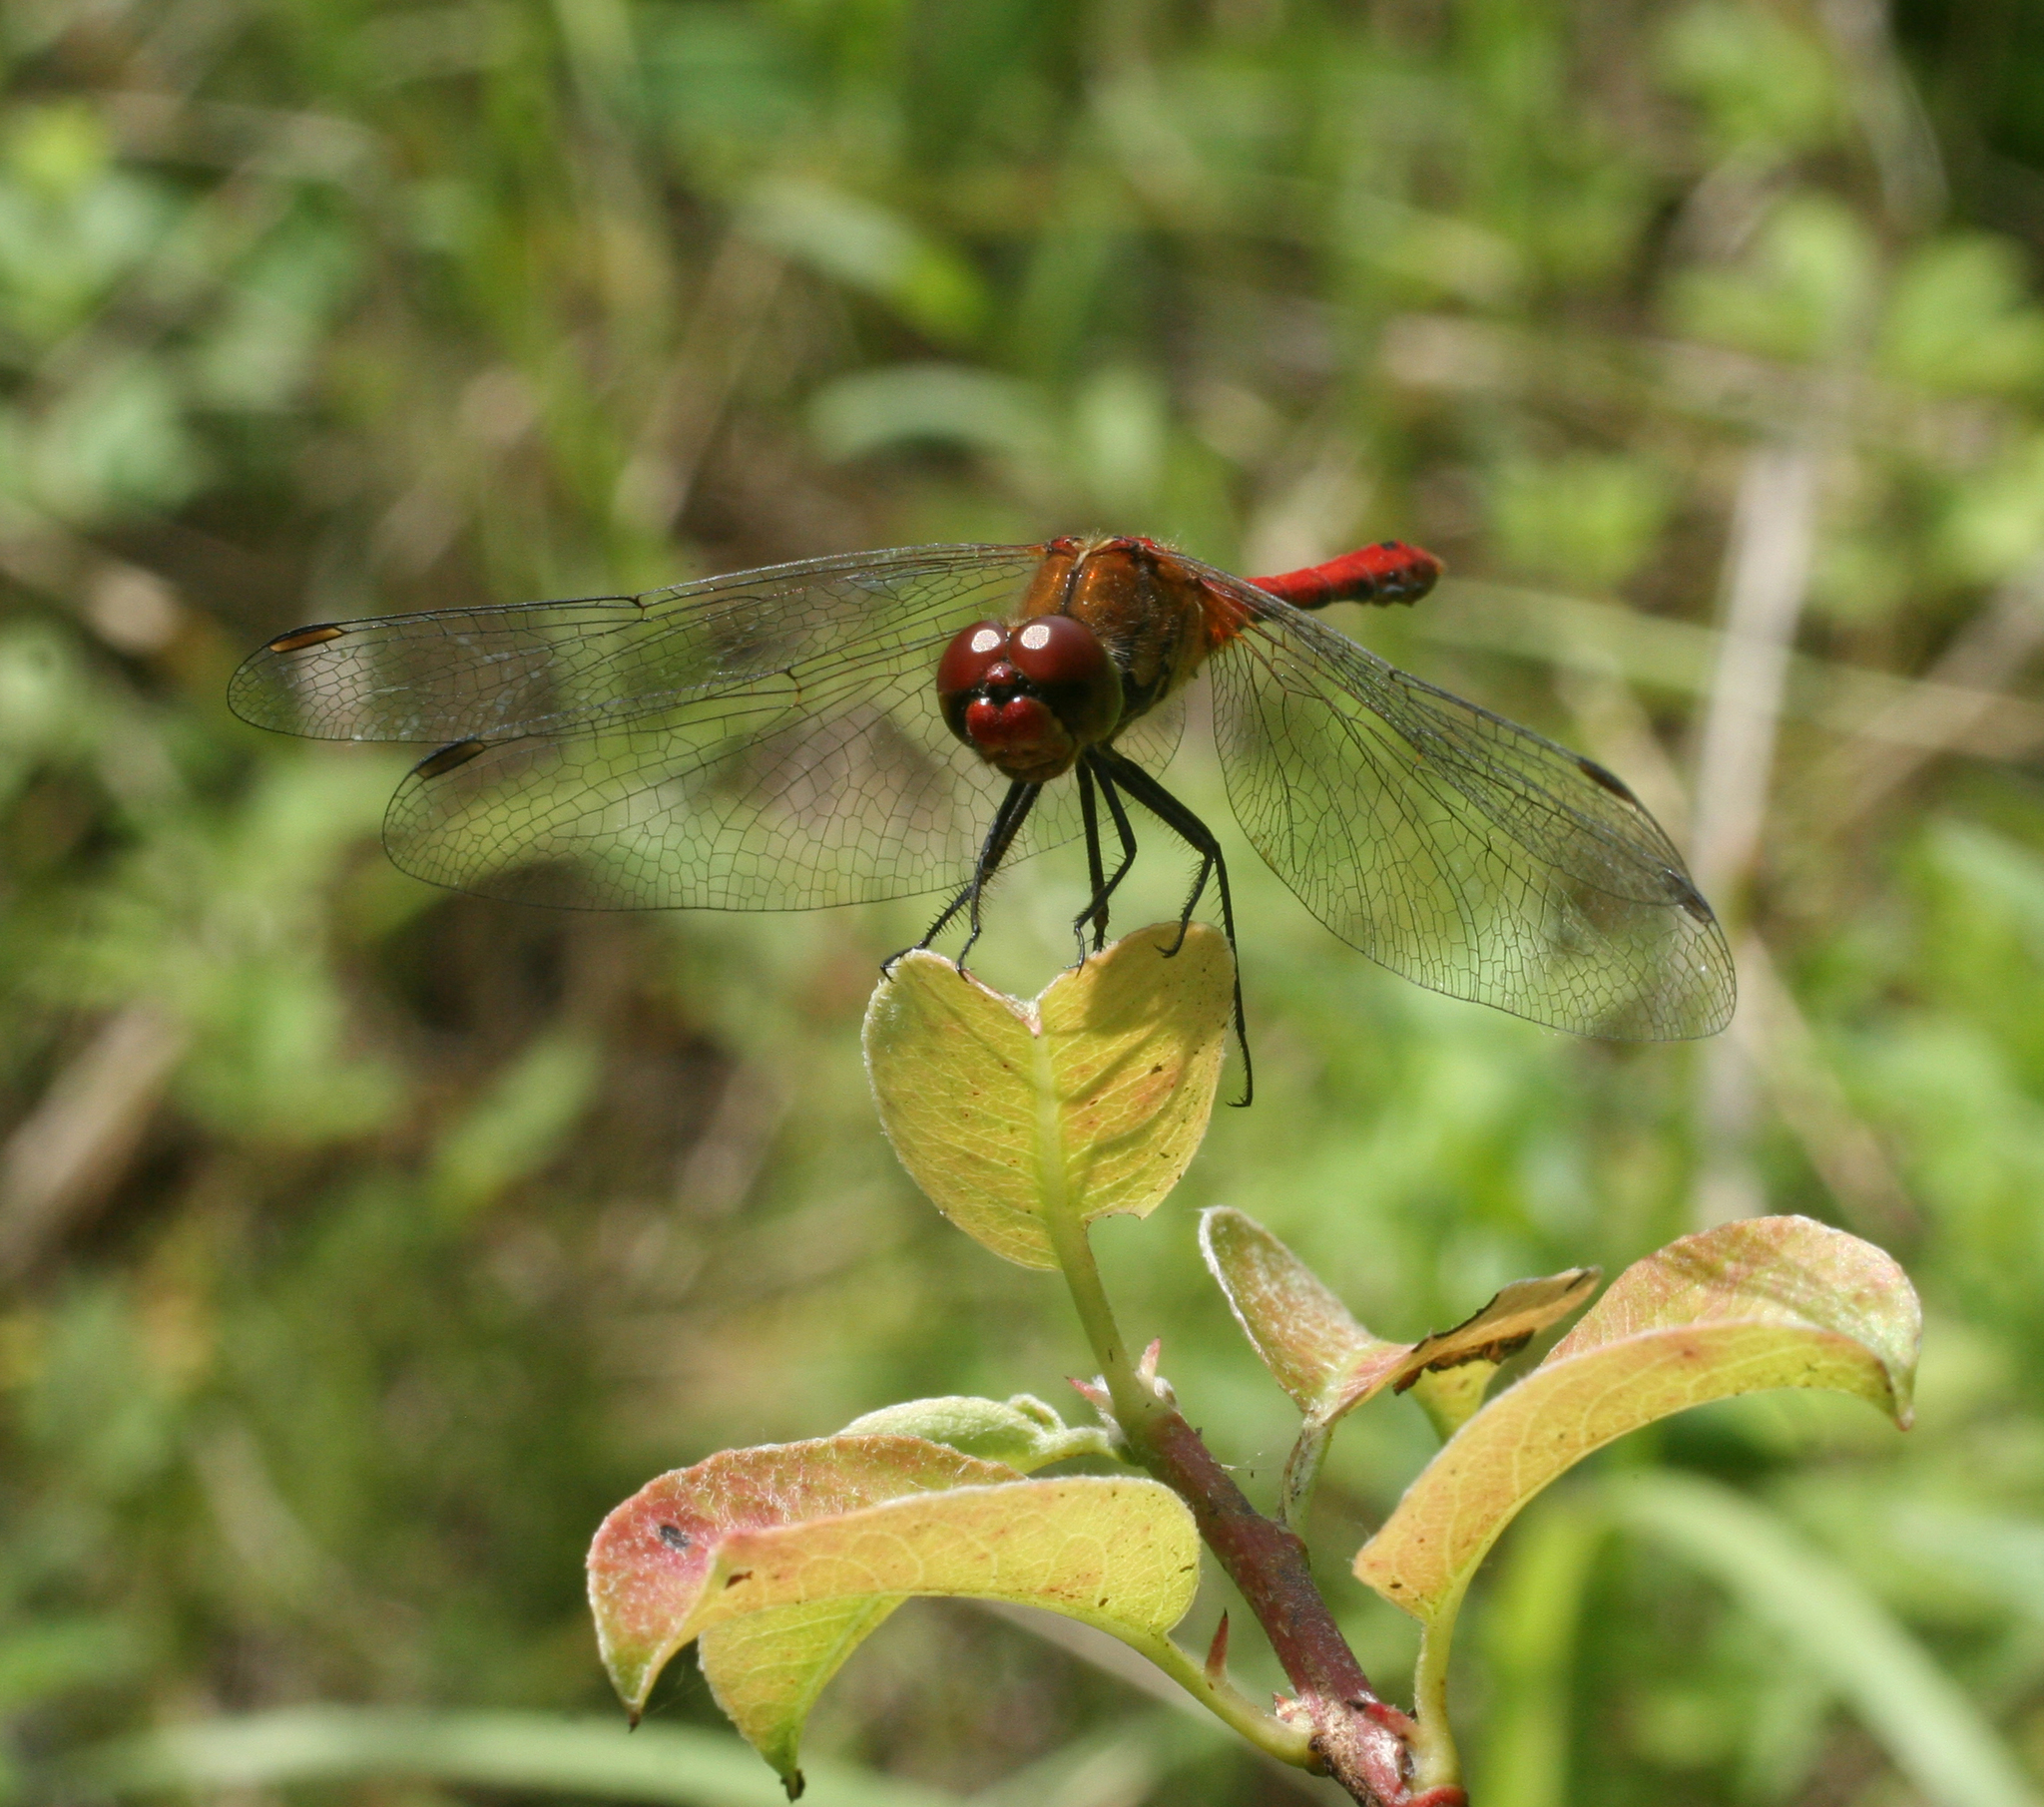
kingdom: Animalia
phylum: Arthropoda
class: Insecta
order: Odonata
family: Libellulidae
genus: Sympetrum
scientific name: Sympetrum sanguineum
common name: Ruddy darter
